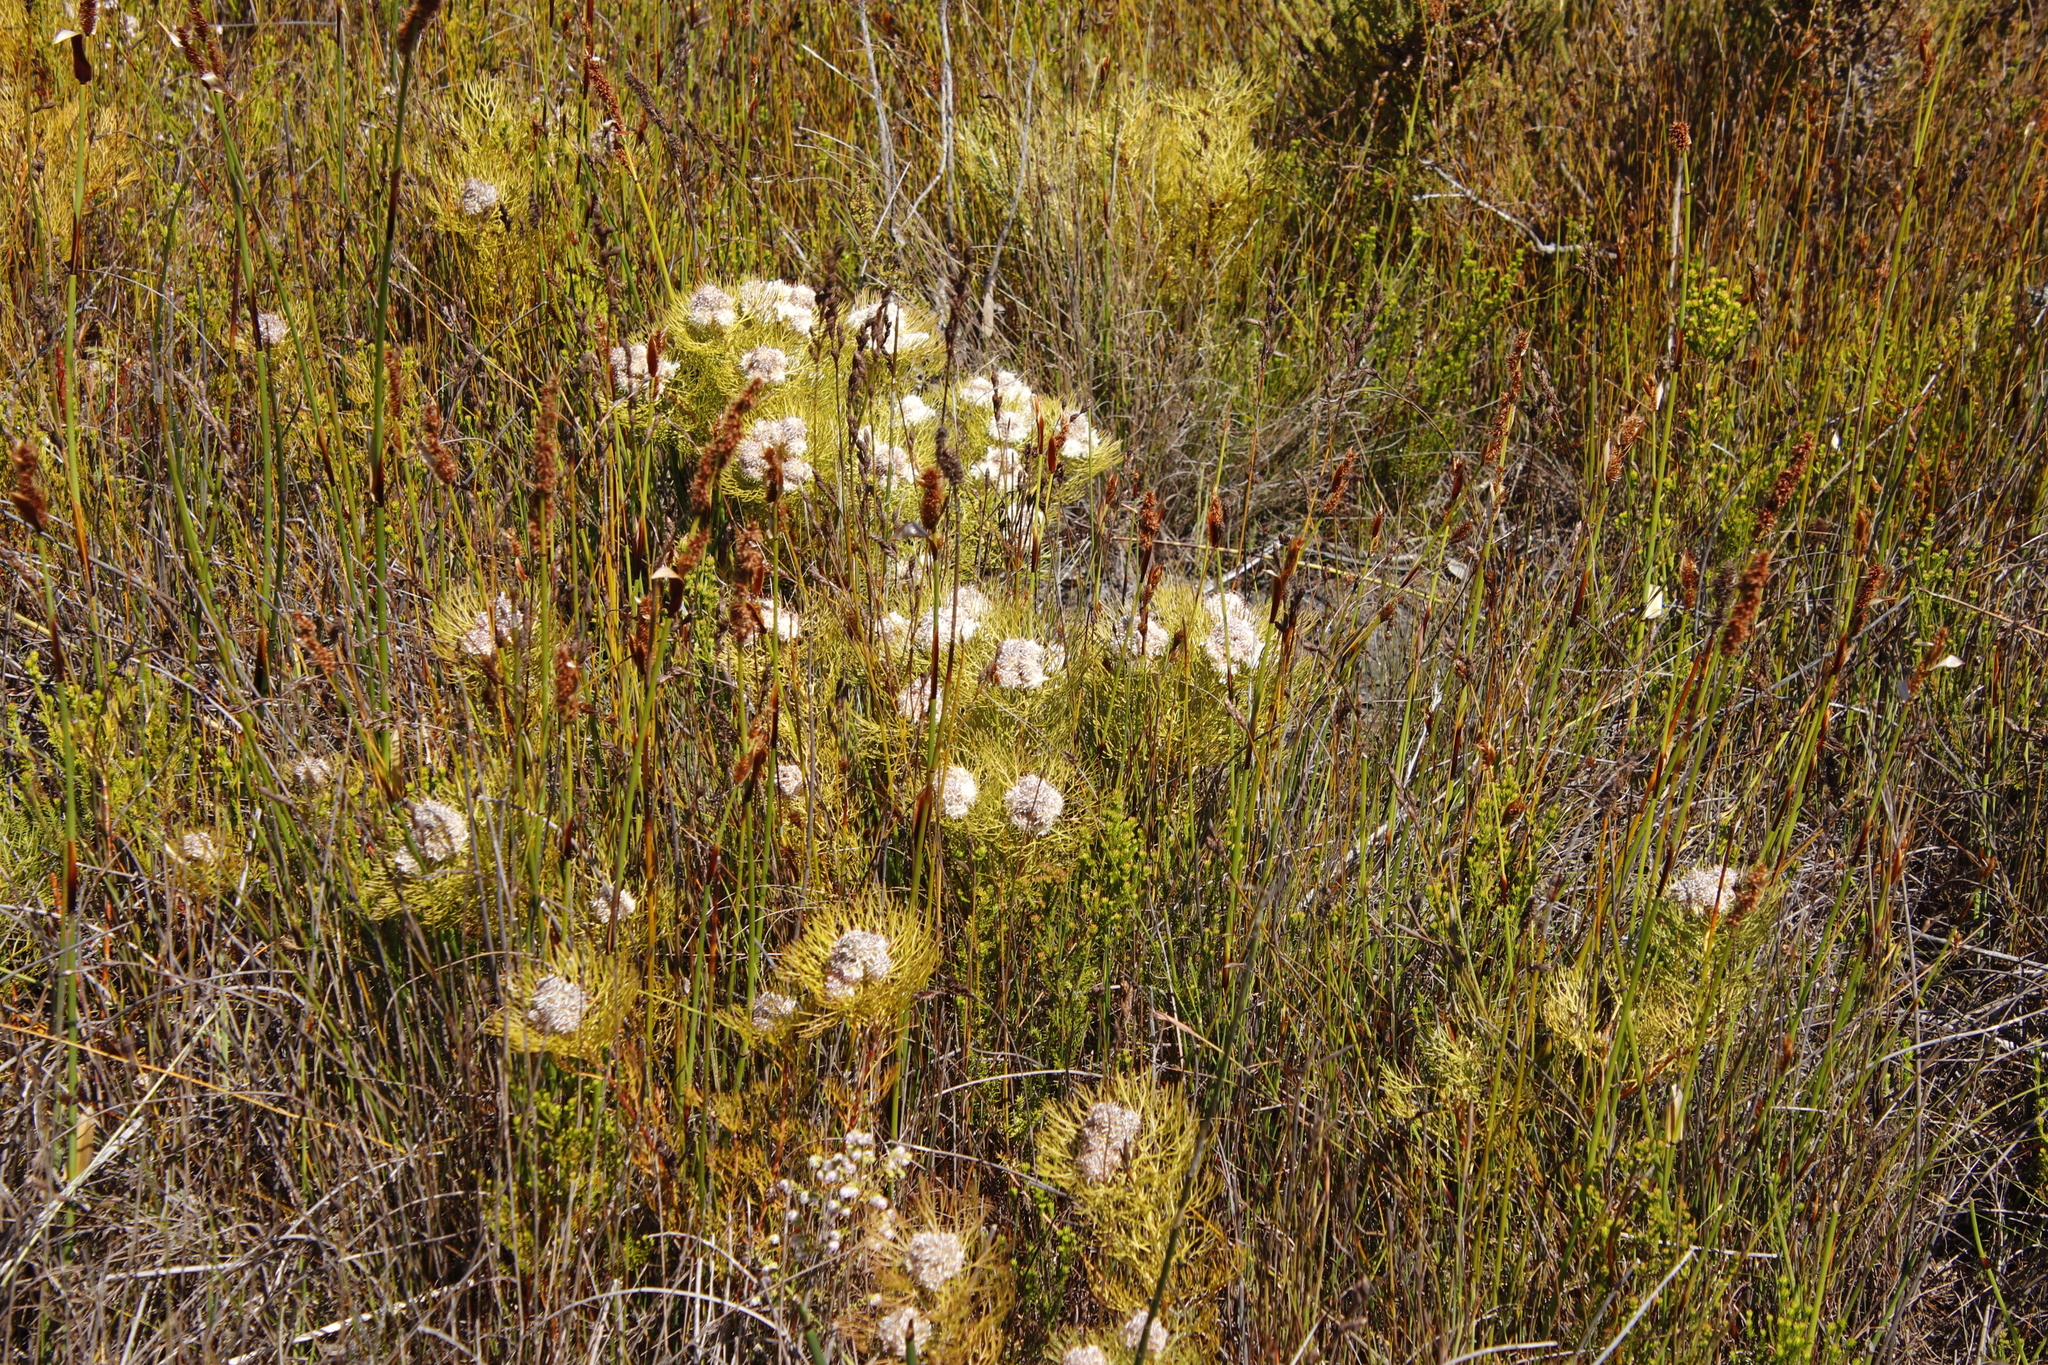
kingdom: Plantae
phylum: Tracheophyta
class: Magnoliopsida
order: Proteales
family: Proteaceae
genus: Serruria
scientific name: Serruria glomerata
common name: Cluster spiderhead
